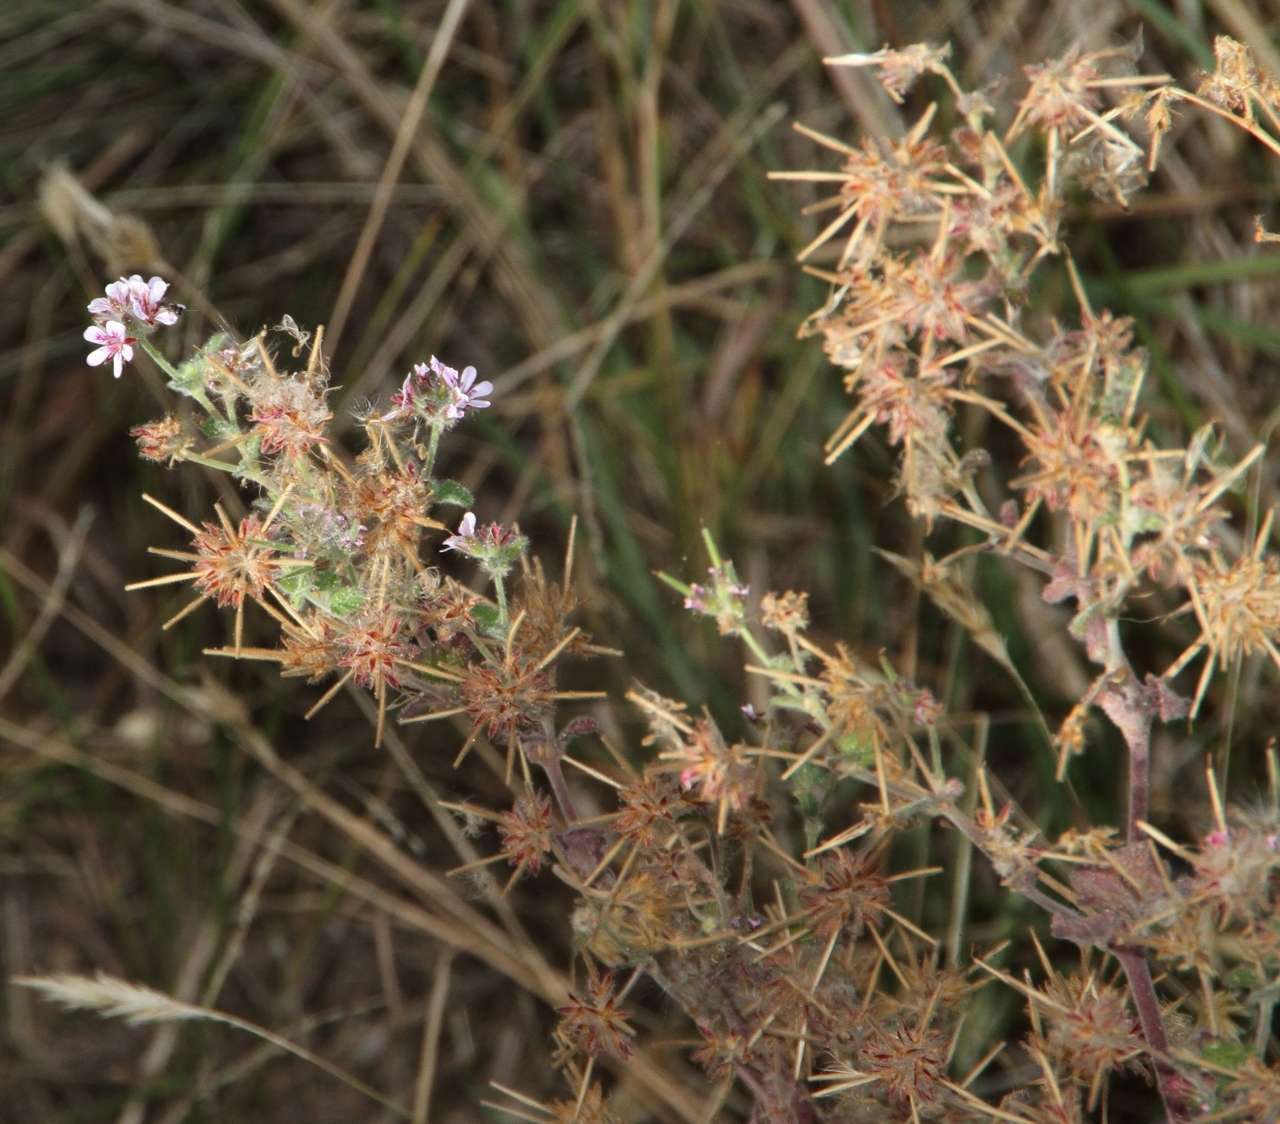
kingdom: Plantae
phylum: Tracheophyta
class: Magnoliopsida
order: Geraniales
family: Geraniaceae
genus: Pelargonium
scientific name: Pelargonium australe
